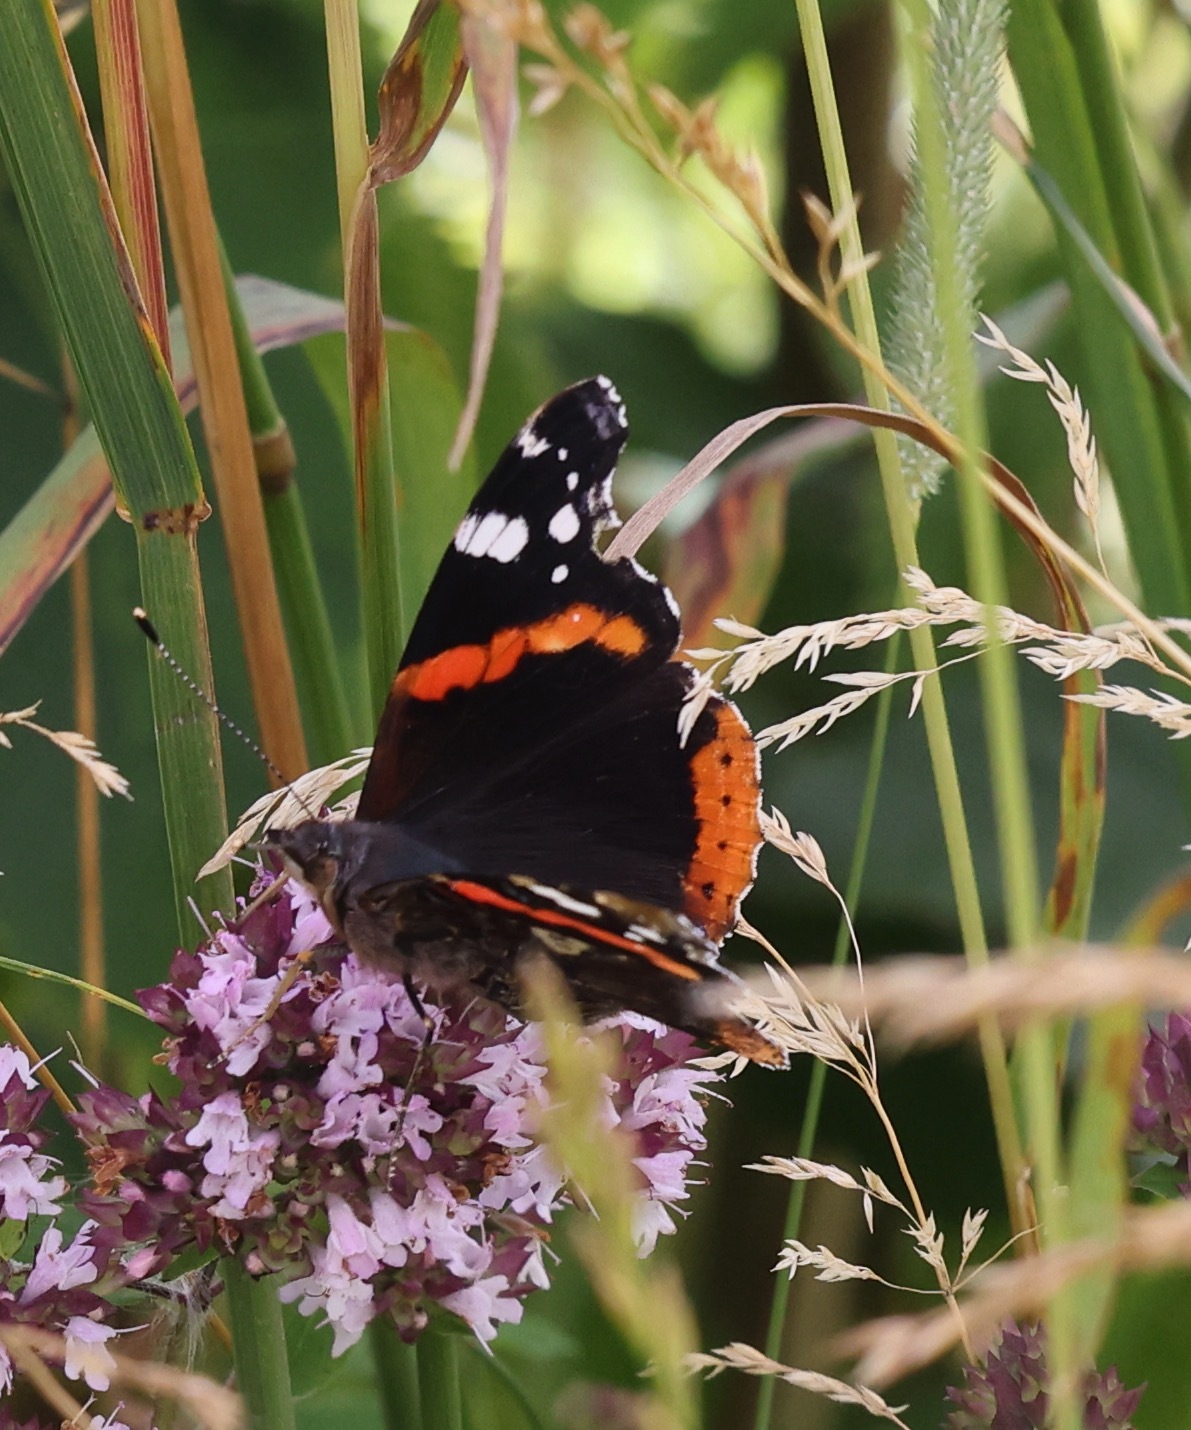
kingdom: Animalia
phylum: Arthropoda
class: Insecta
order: Lepidoptera
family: Nymphalidae
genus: Vanessa
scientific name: Vanessa atalanta
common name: Red admiral
